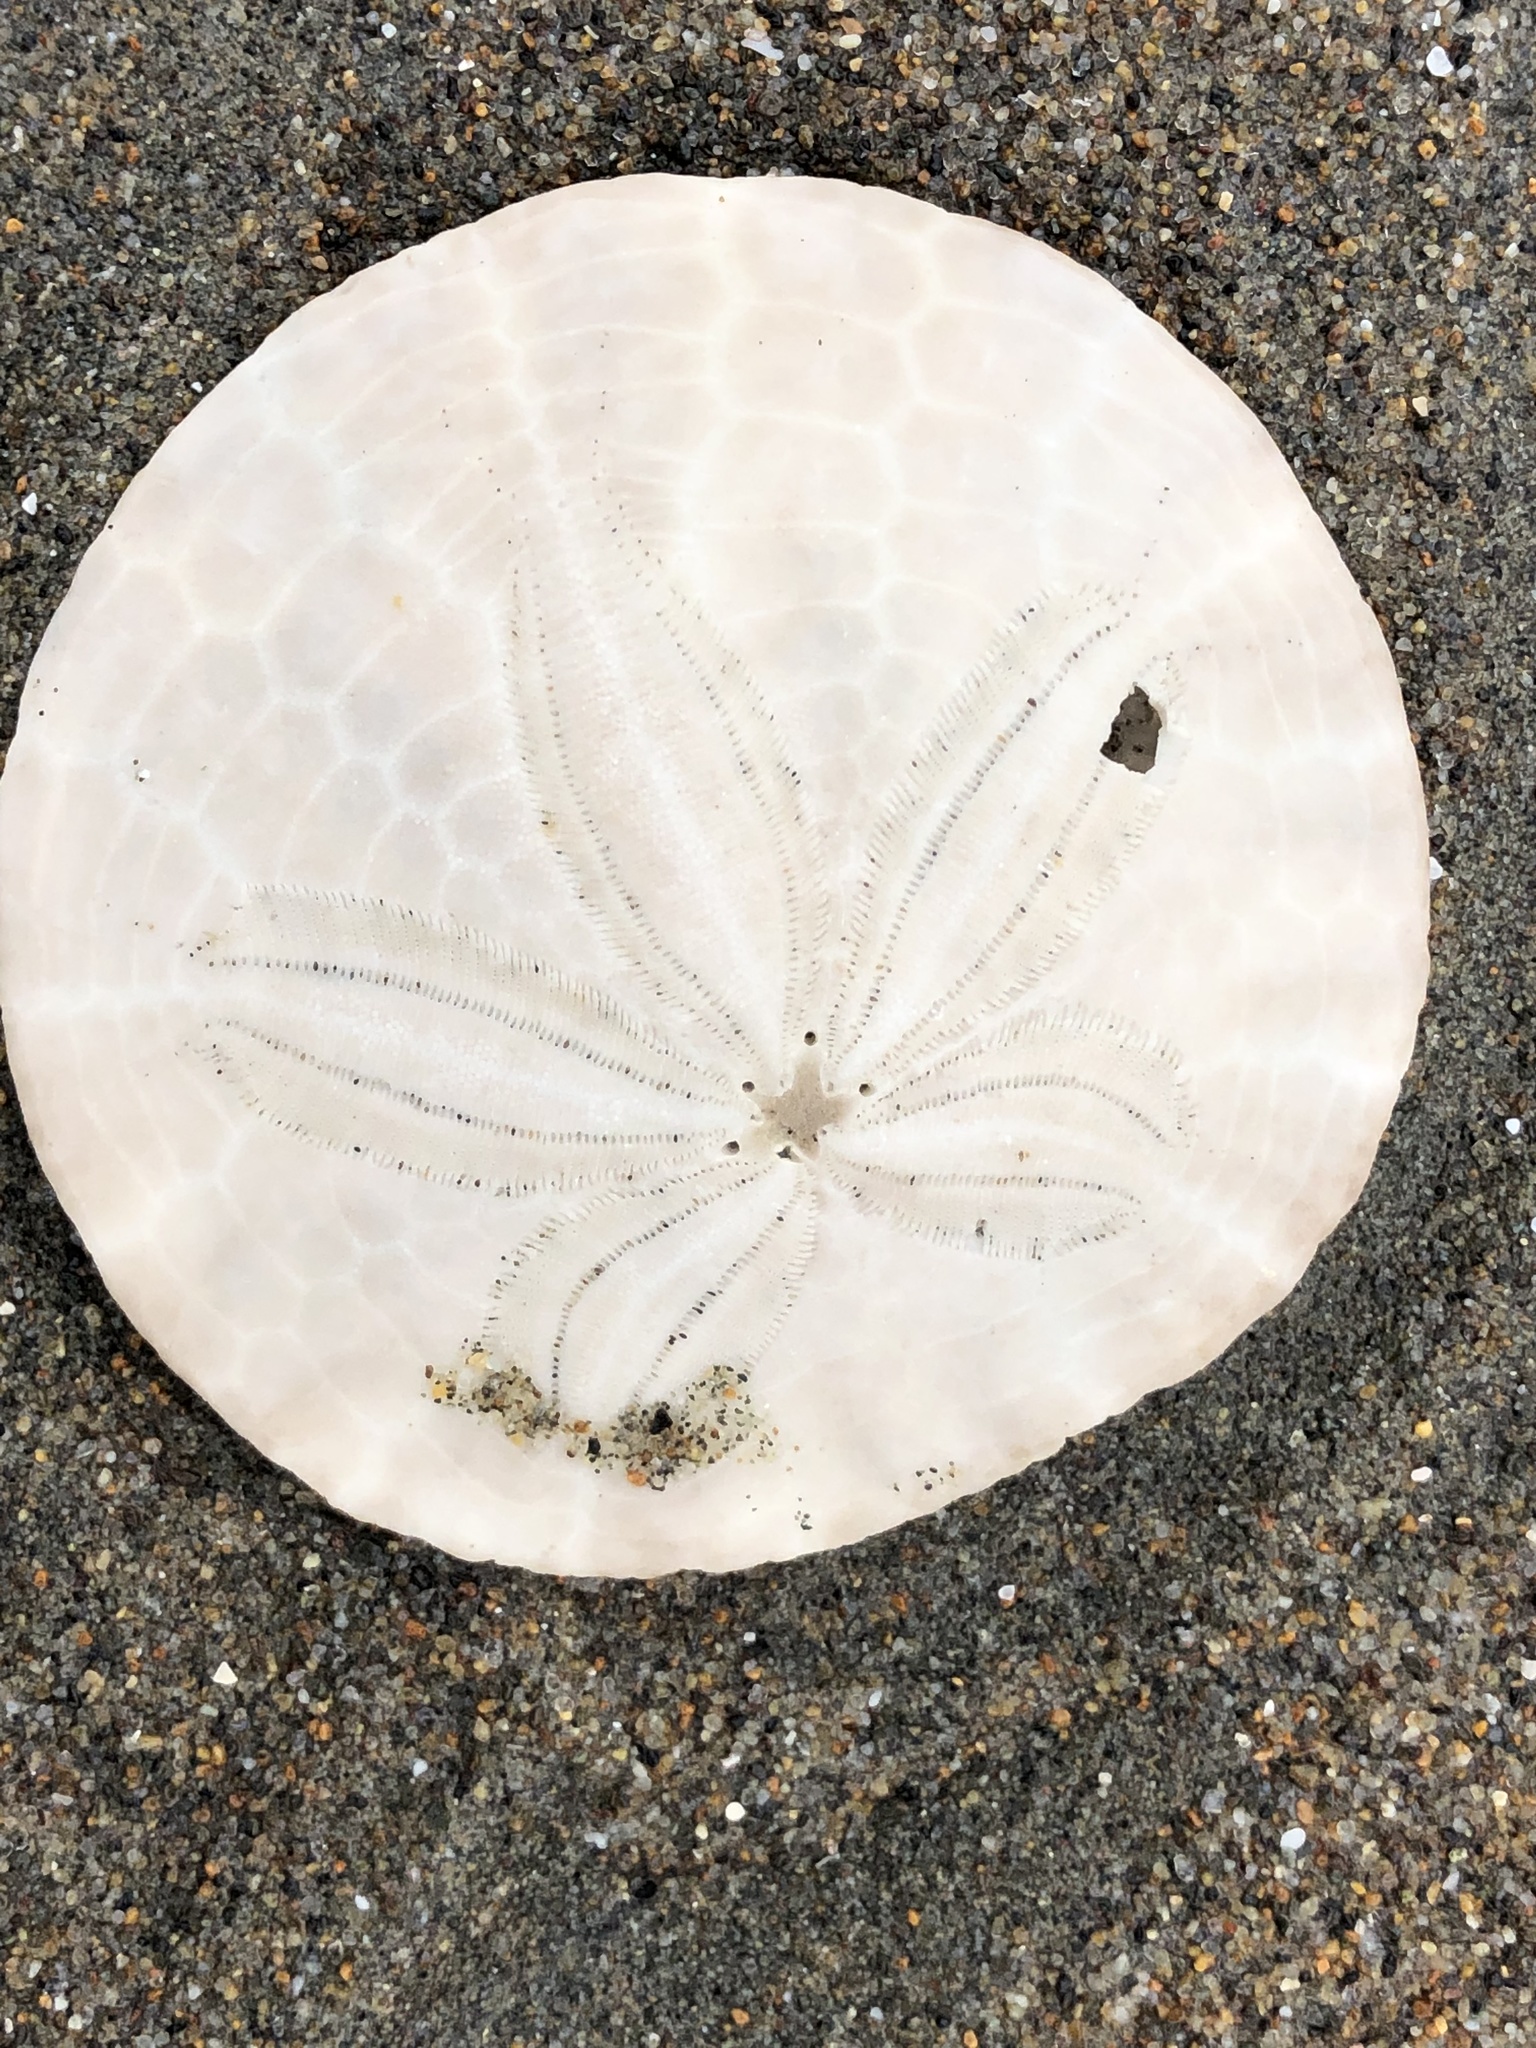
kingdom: Animalia
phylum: Echinodermata
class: Echinoidea
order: Echinolampadacea
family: Dendrasteridae
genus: Dendraster
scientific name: Dendraster excentricus
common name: Eccentric sand dollar sea urchin
